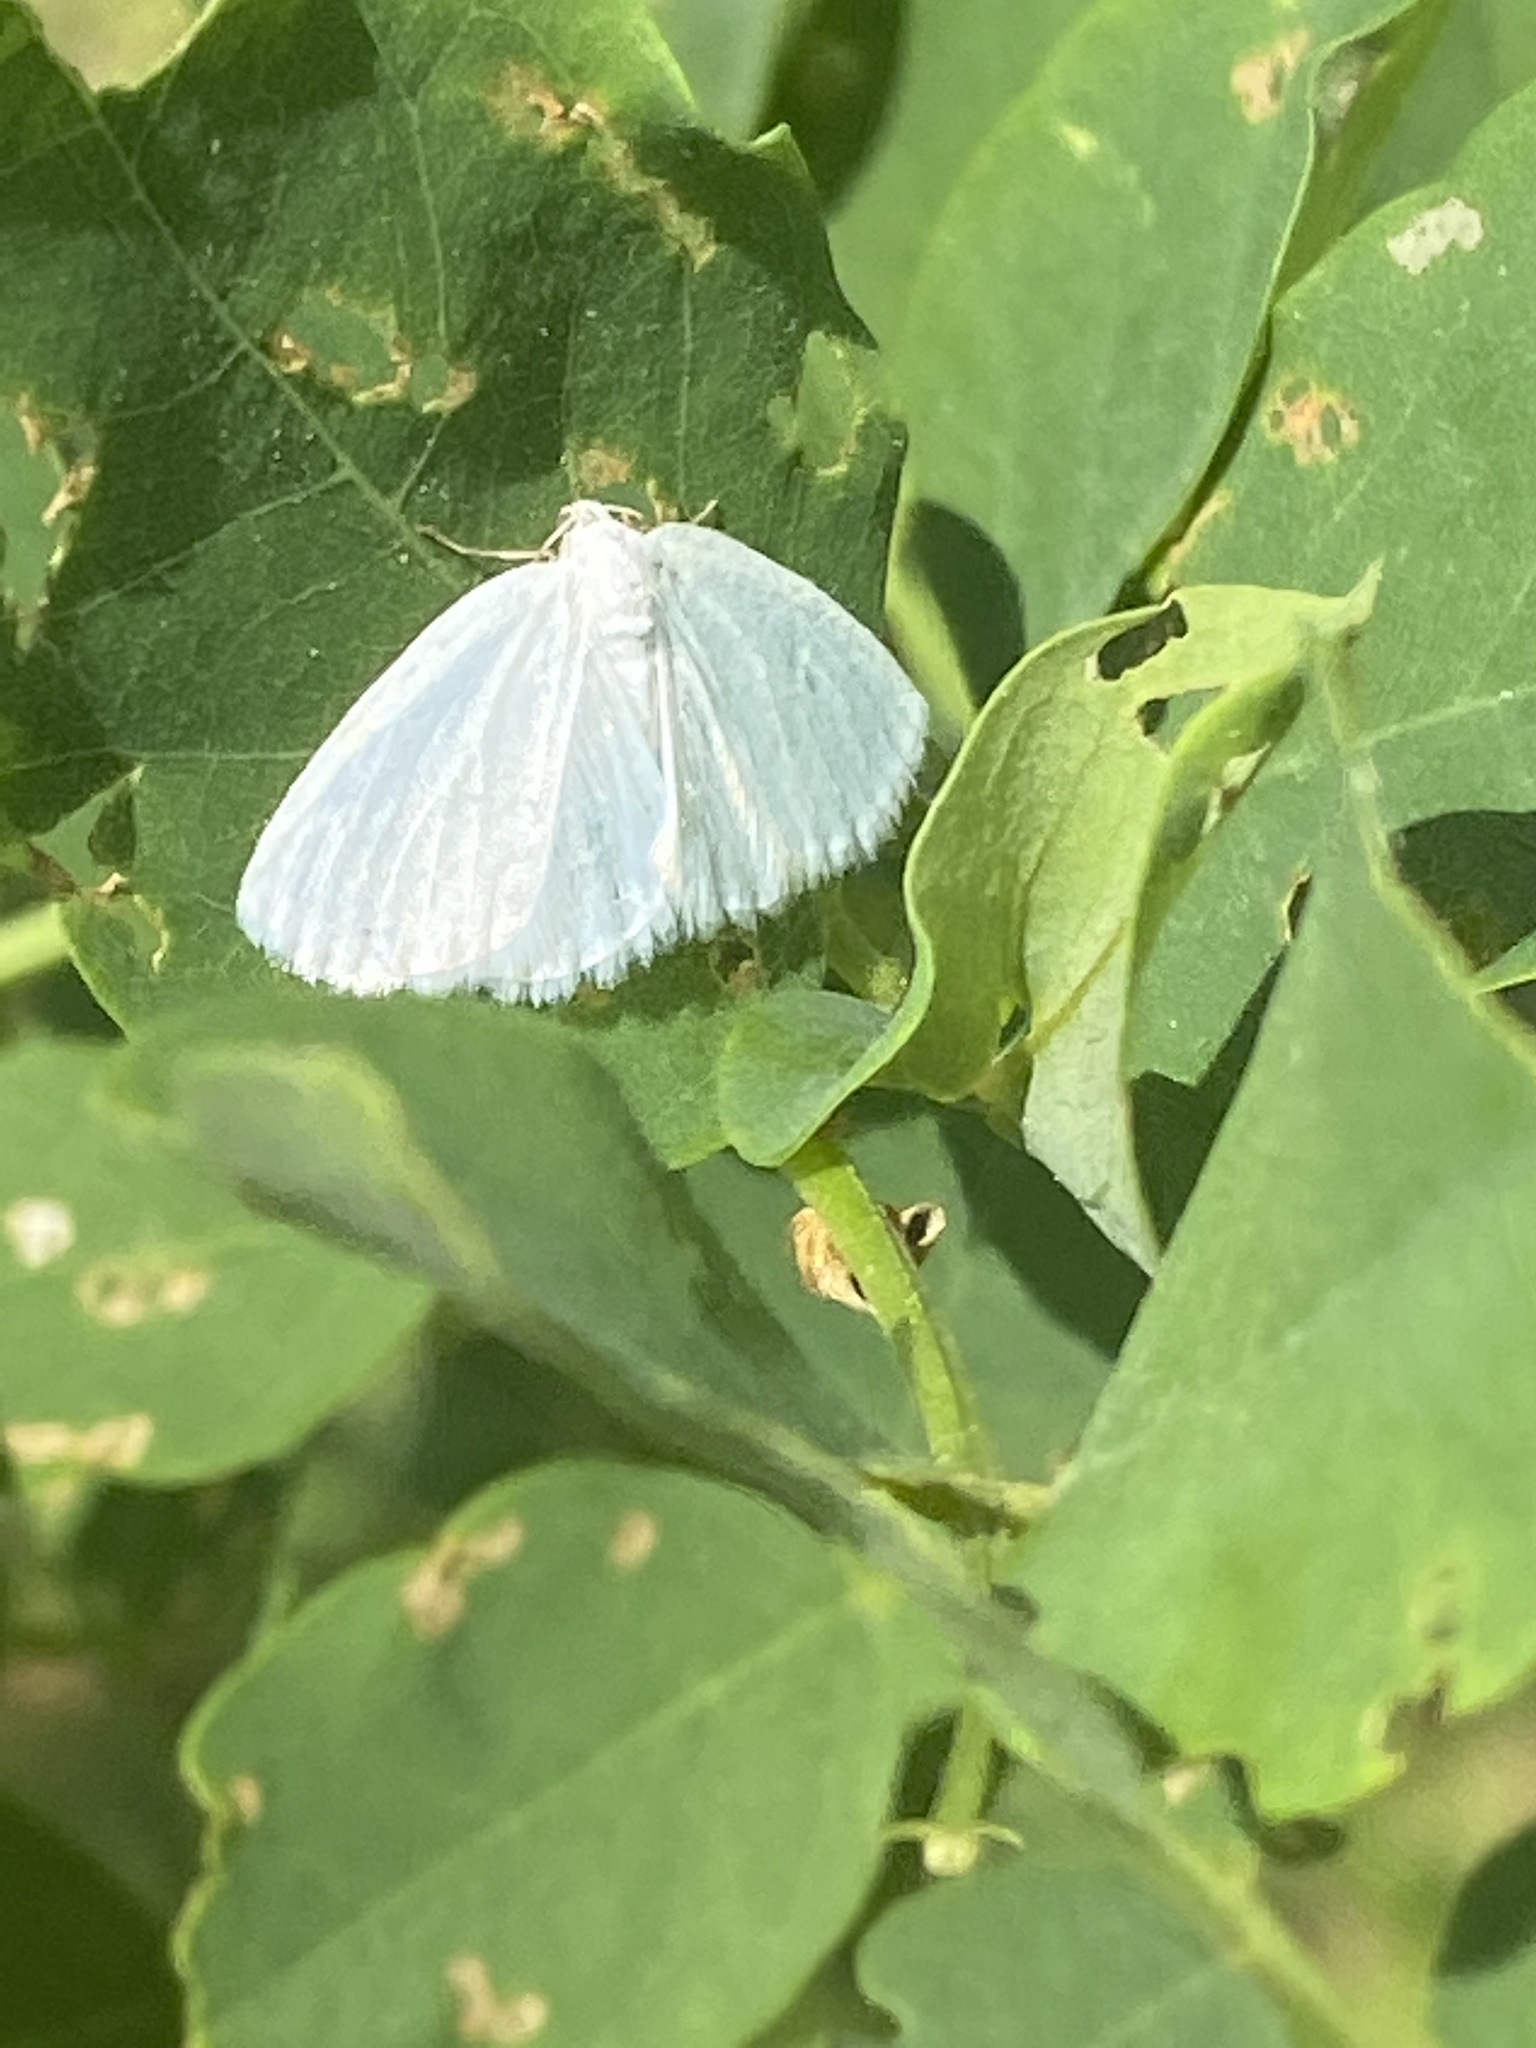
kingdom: Animalia
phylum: Arthropoda
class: Insecta
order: Lepidoptera
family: Geometridae
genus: Lomographa
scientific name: Lomographa vestaliata
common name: White spring moth
